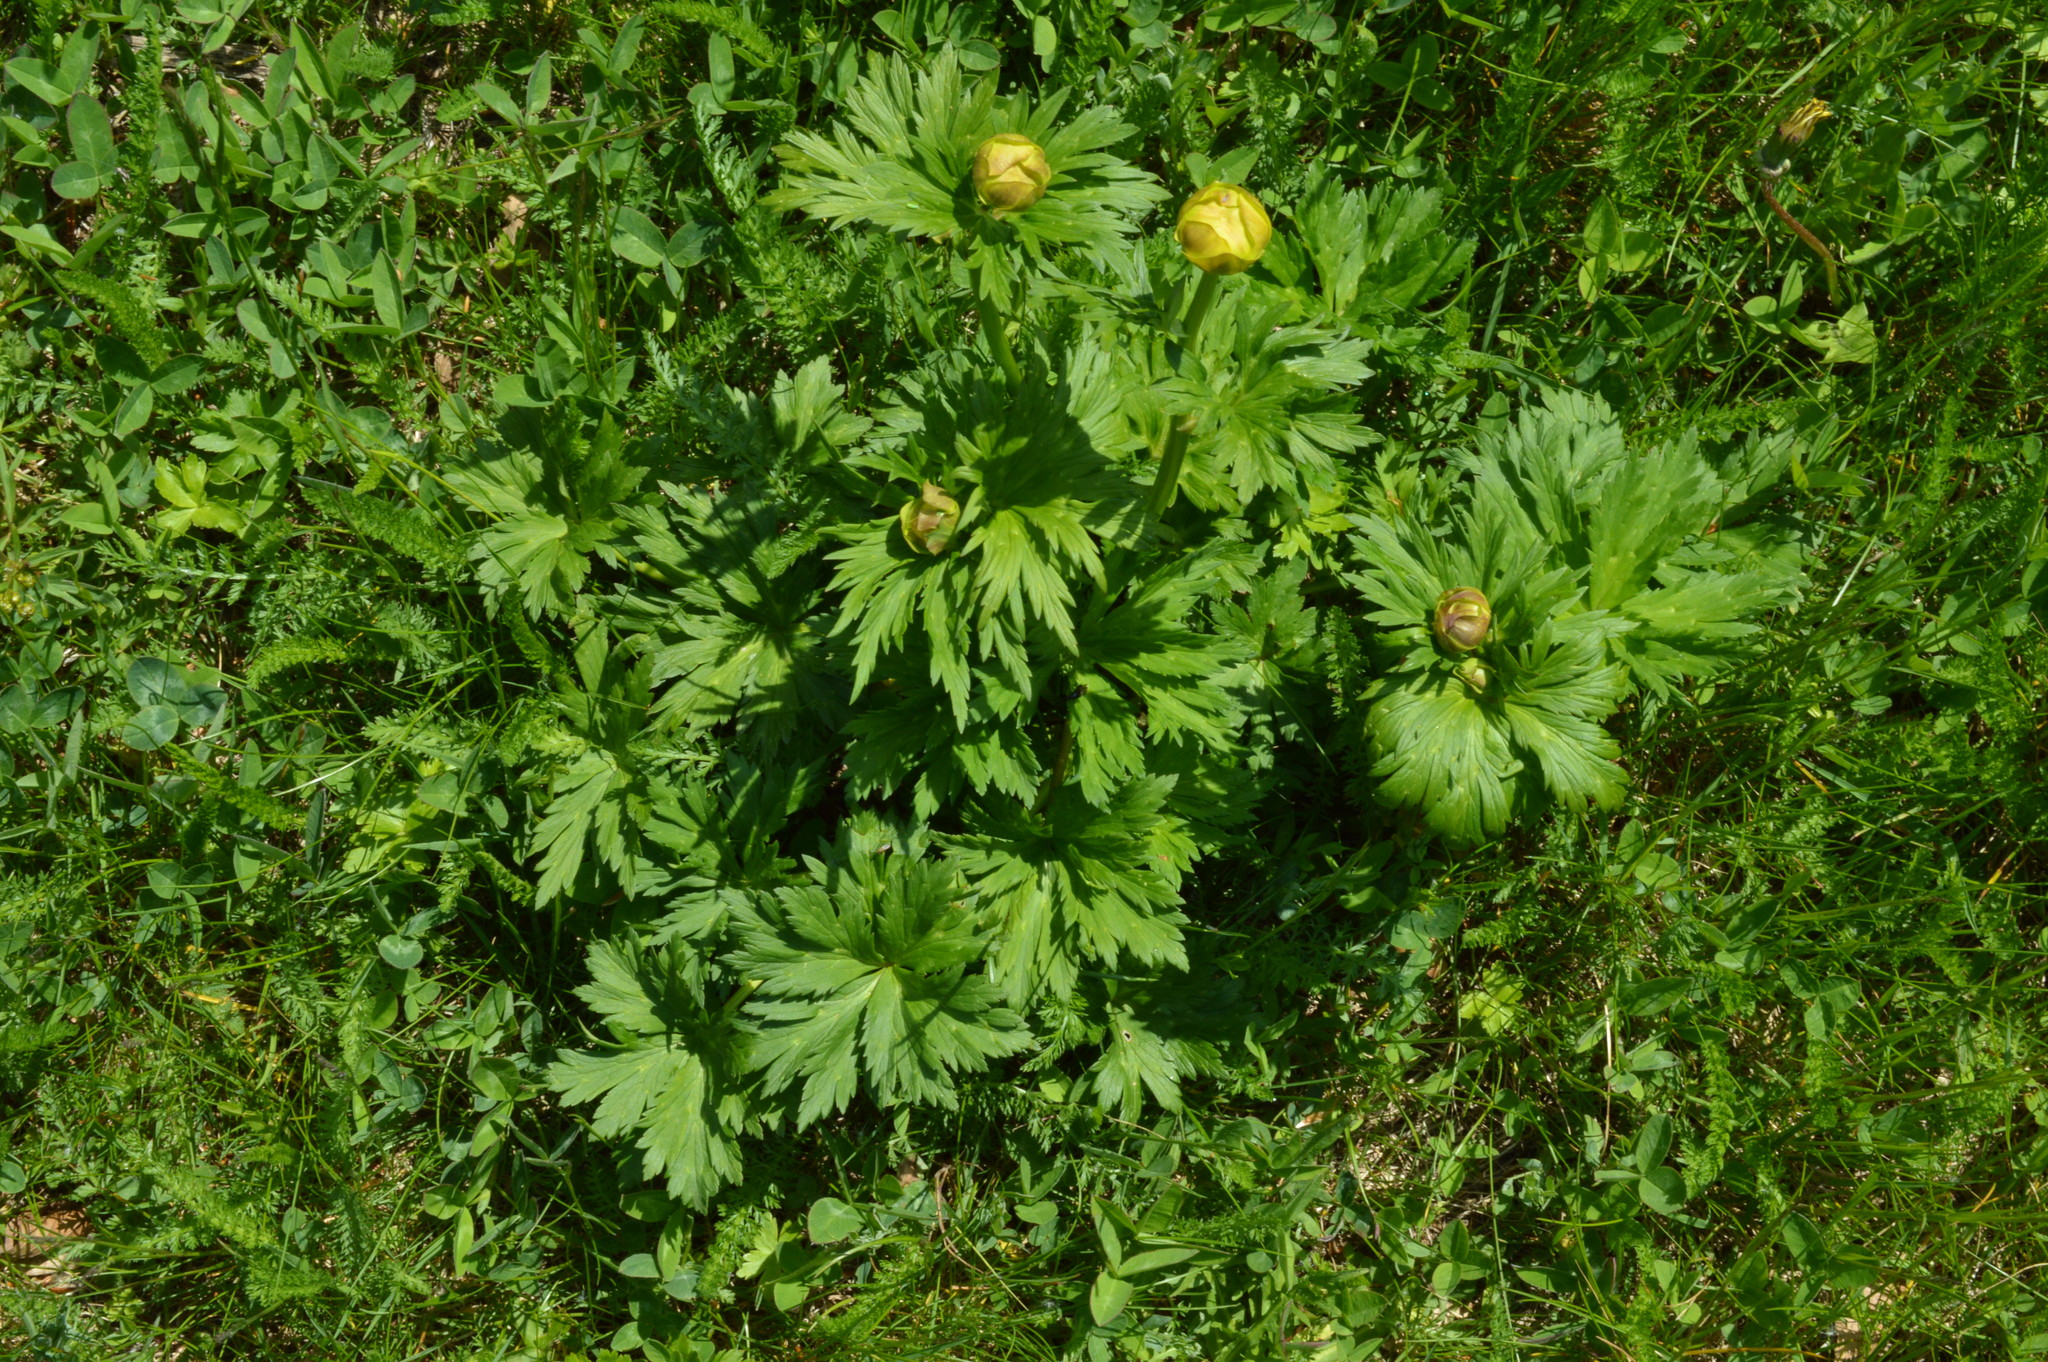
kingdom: Plantae
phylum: Tracheophyta
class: Magnoliopsida
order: Ranunculales
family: Ranunculaceae
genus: Trollius
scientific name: Trollius europaeus
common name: European globeflower
